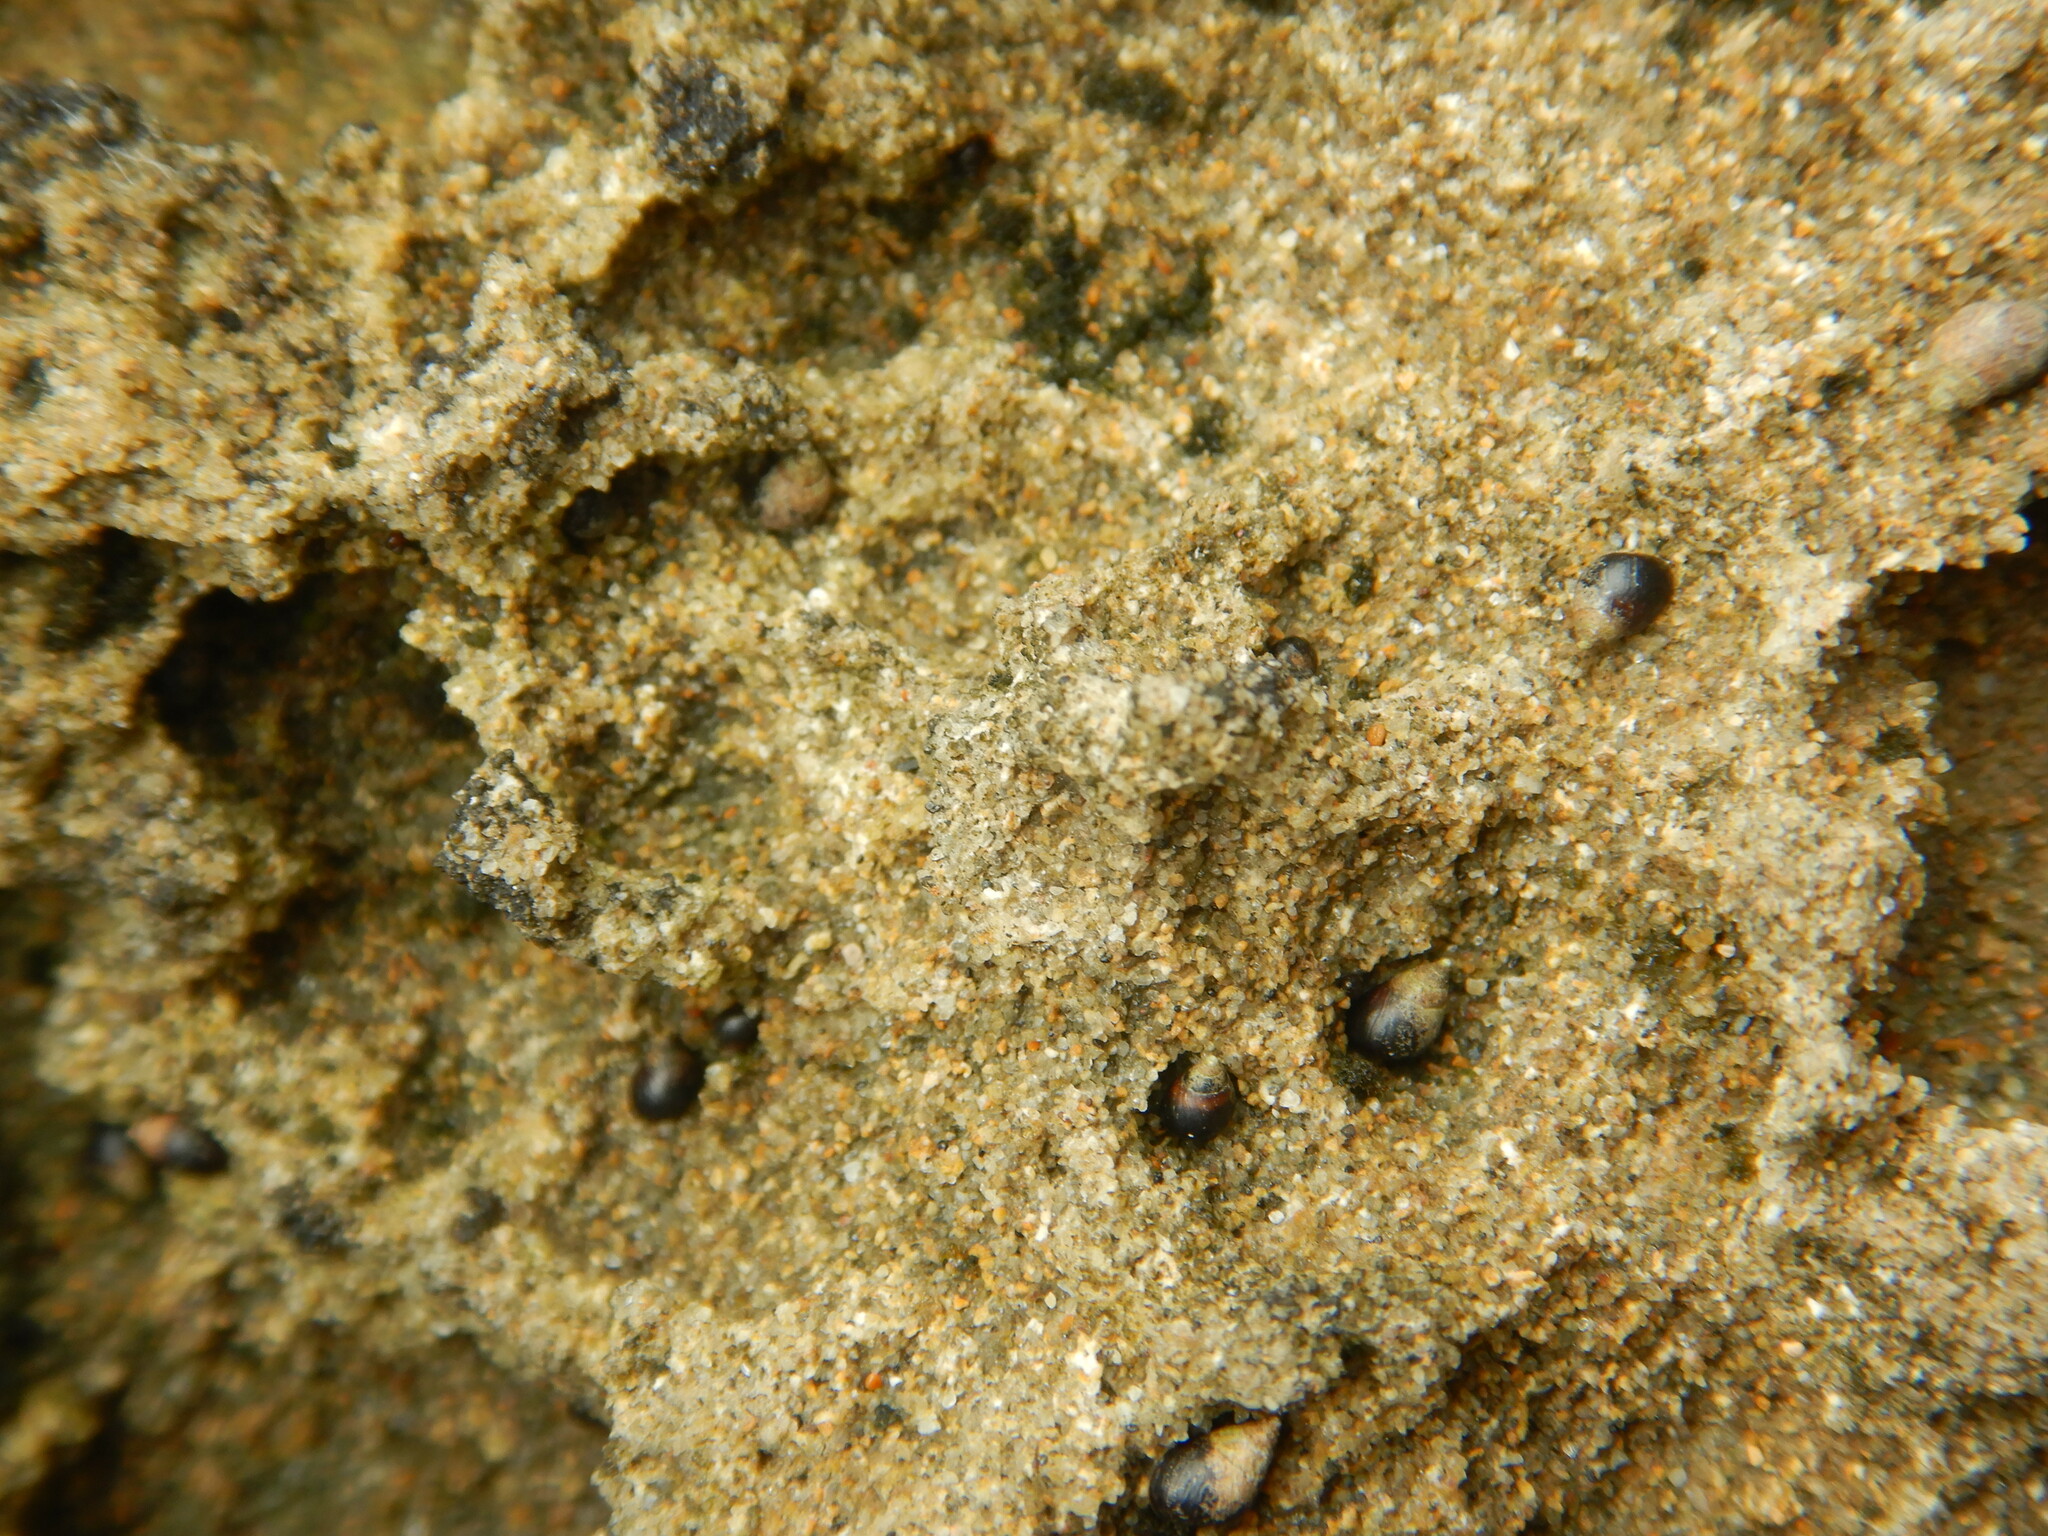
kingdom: Animalia
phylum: Mollusca
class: Gastropoda
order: Littorinimorpha
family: Littorinidae
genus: Melarhaphe
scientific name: Melarhaphe neritoides
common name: Small periwinkle
